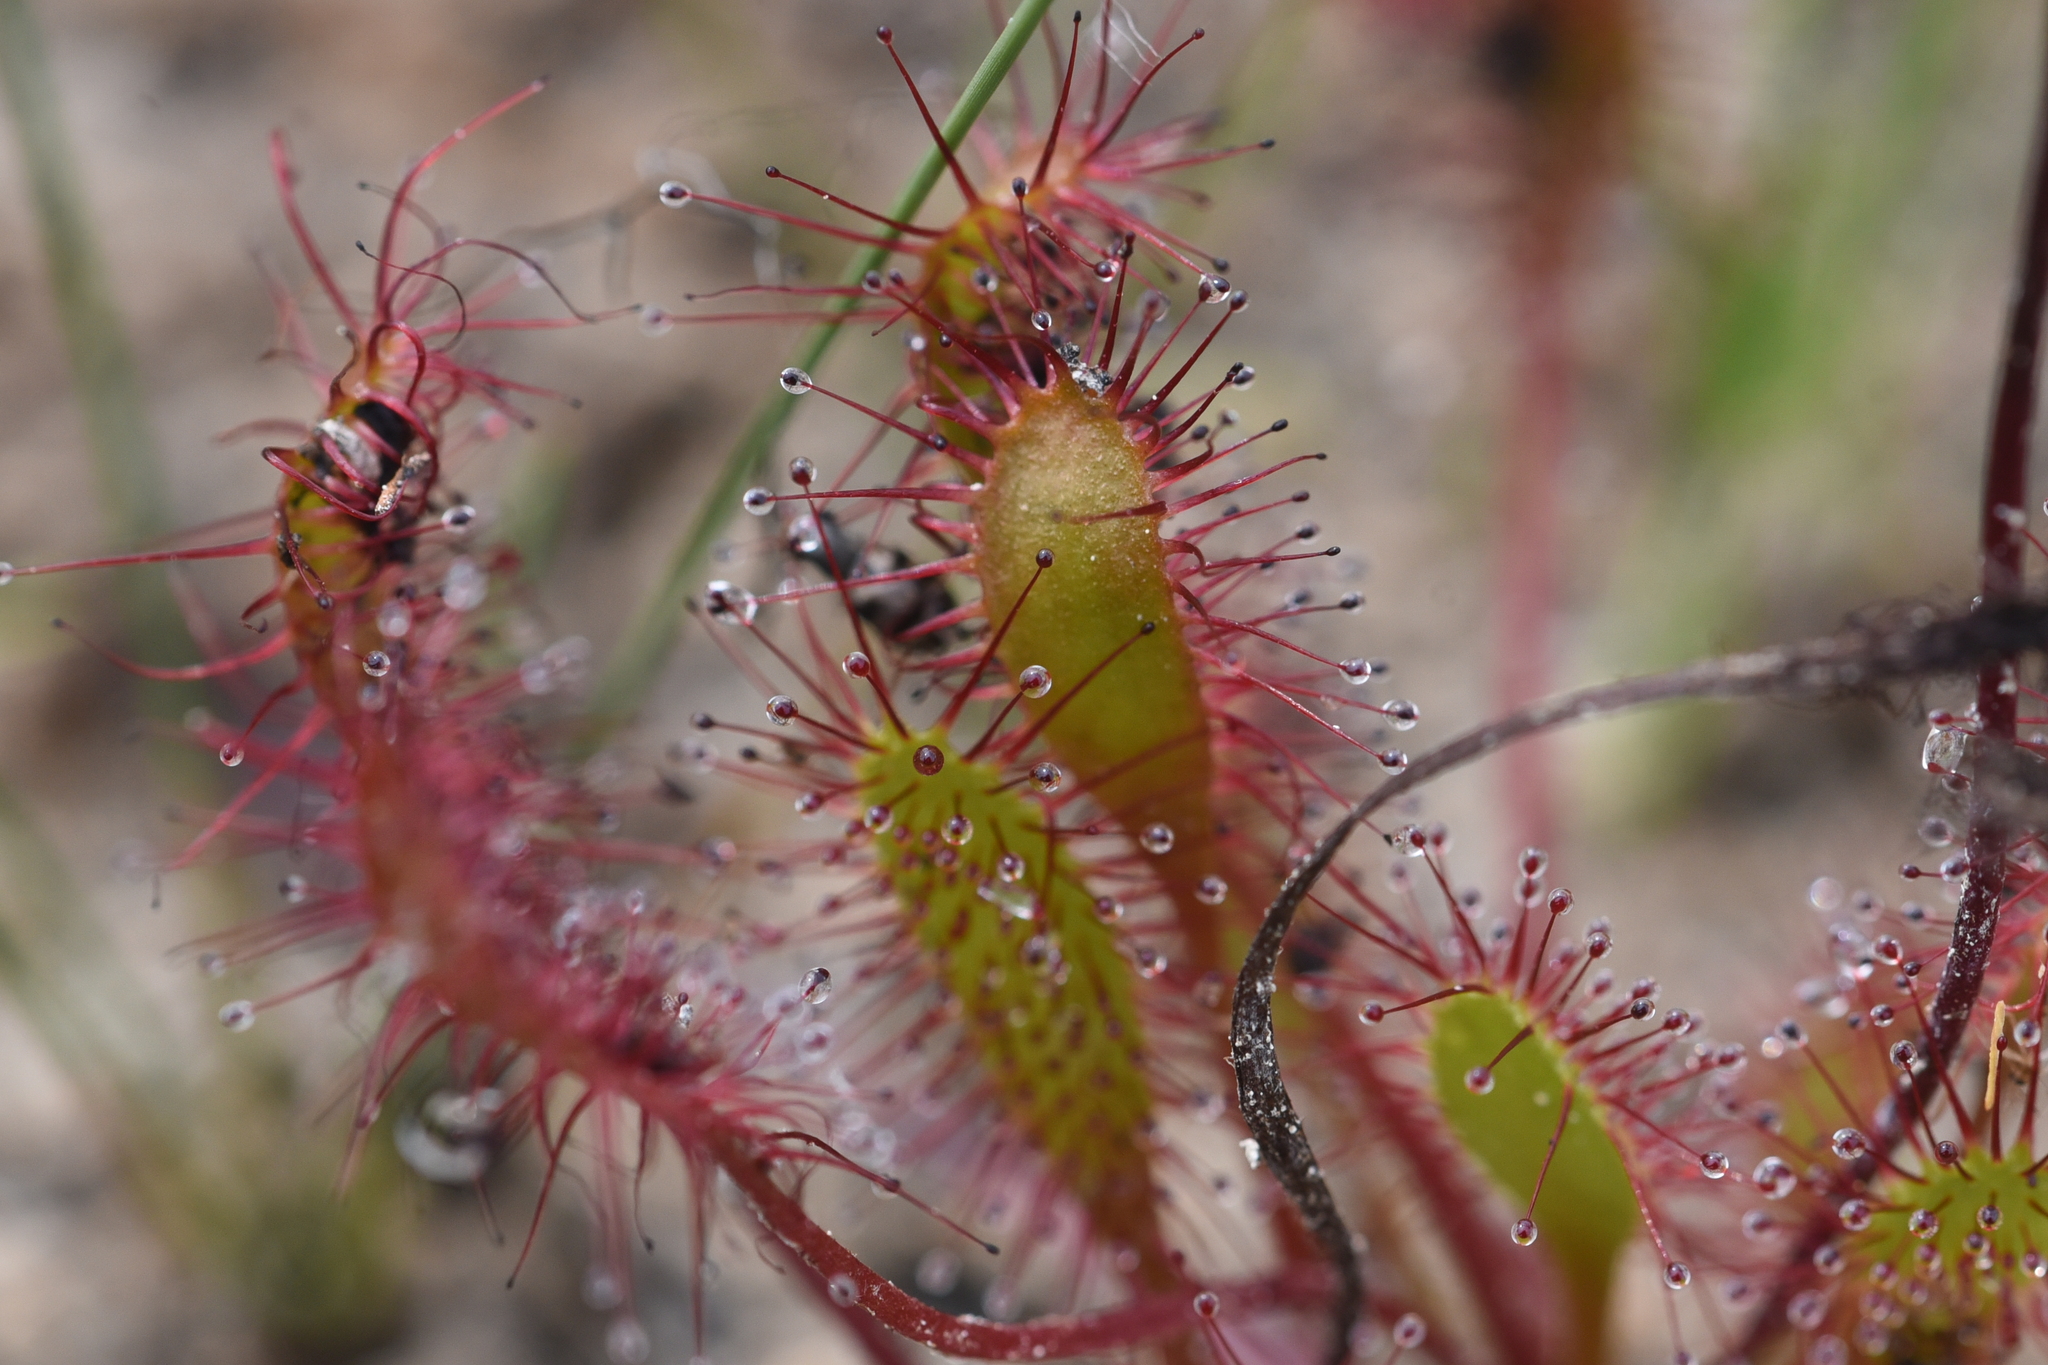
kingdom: Plantae
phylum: Tracheophyta
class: Magnoliopsida
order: Caryophyllales
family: Droseraceae
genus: Drosera
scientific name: Drosera anglica
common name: Great sundew
